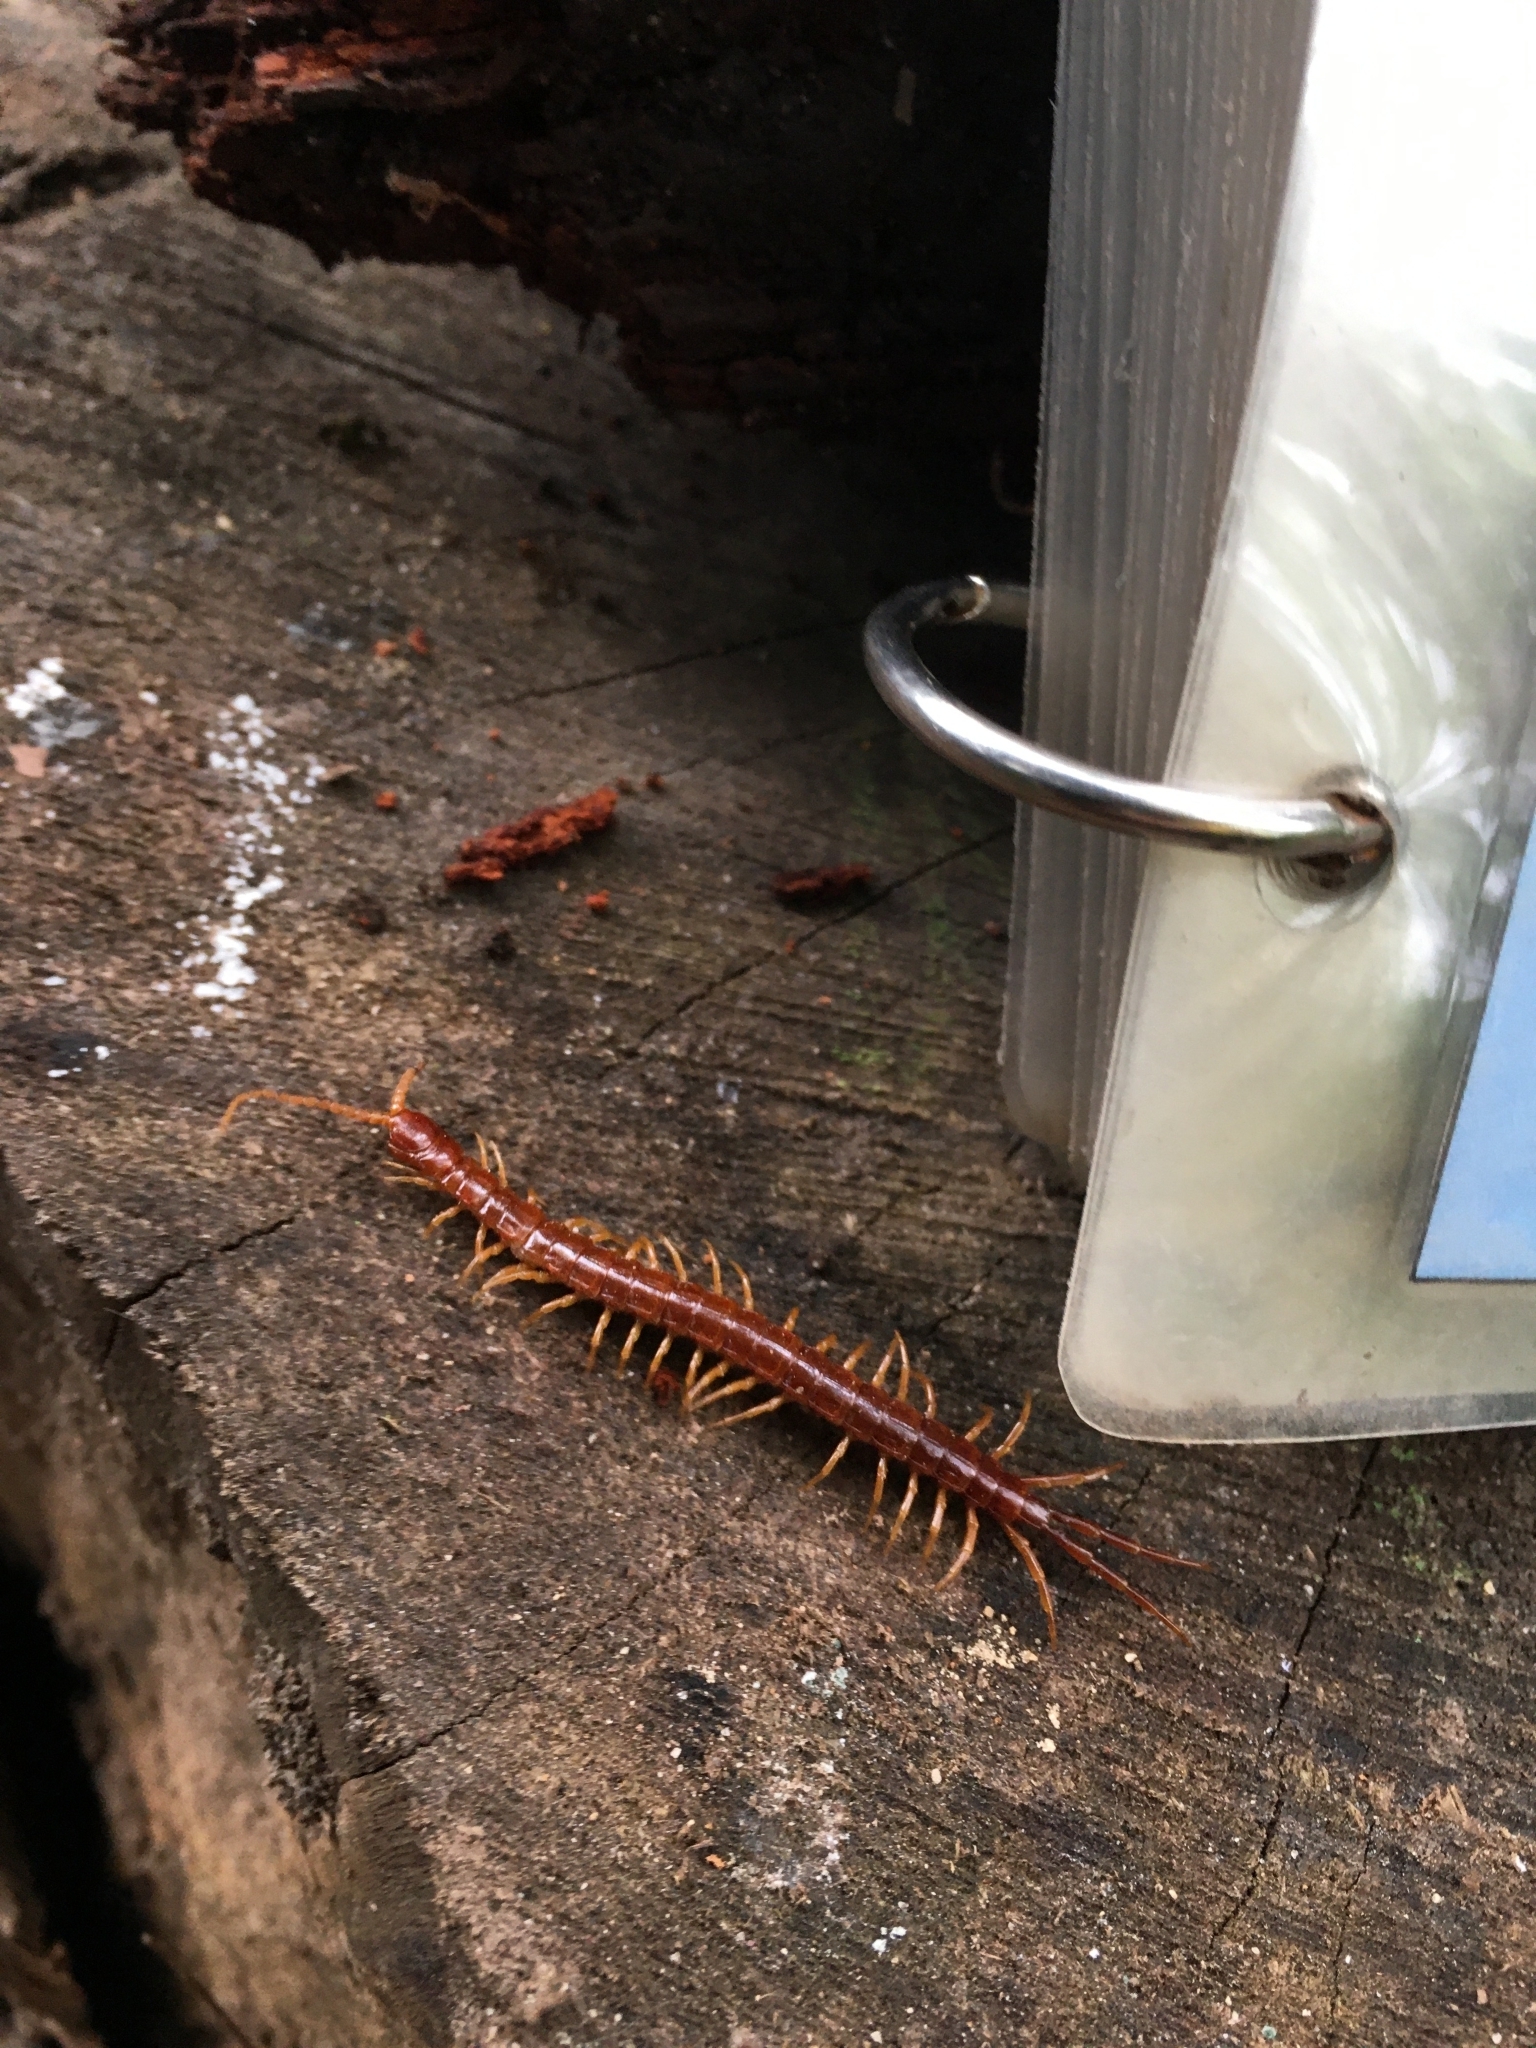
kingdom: Animalia
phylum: Arthropoda
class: Chilopoda
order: Scolopendromorpha
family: Scolopocryptopidae
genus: Scolopocryptops
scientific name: Scolopocryptops spinicaudus
